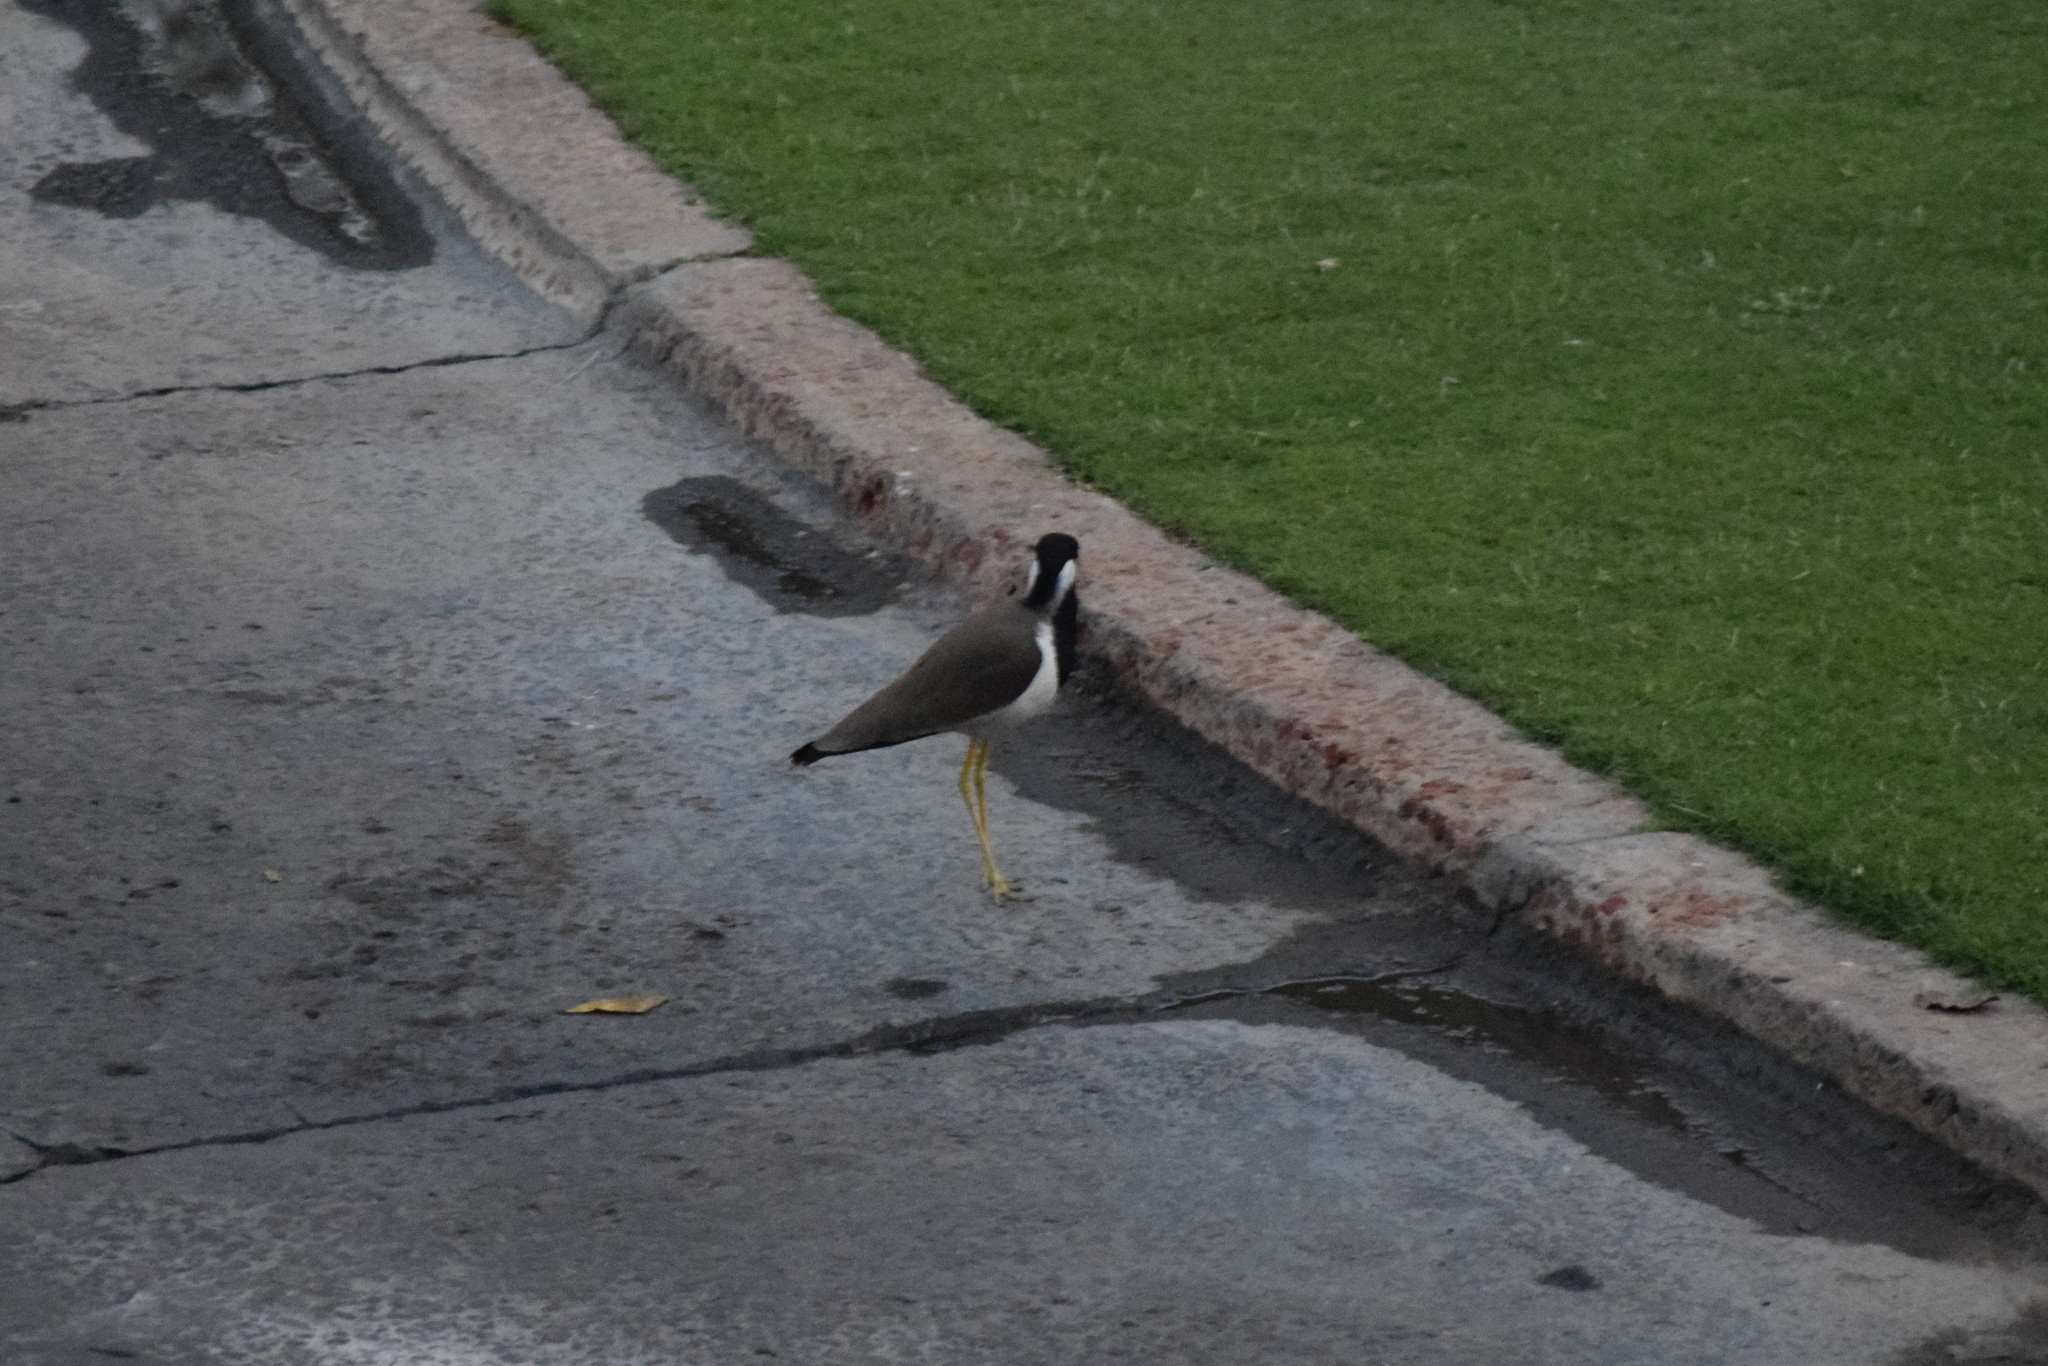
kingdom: Animalia
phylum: Chordata
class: Aves
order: Charadriiformes
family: Charadriidae
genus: Vanellus
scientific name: Vanellus indicus
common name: Red-wattled lapwing
